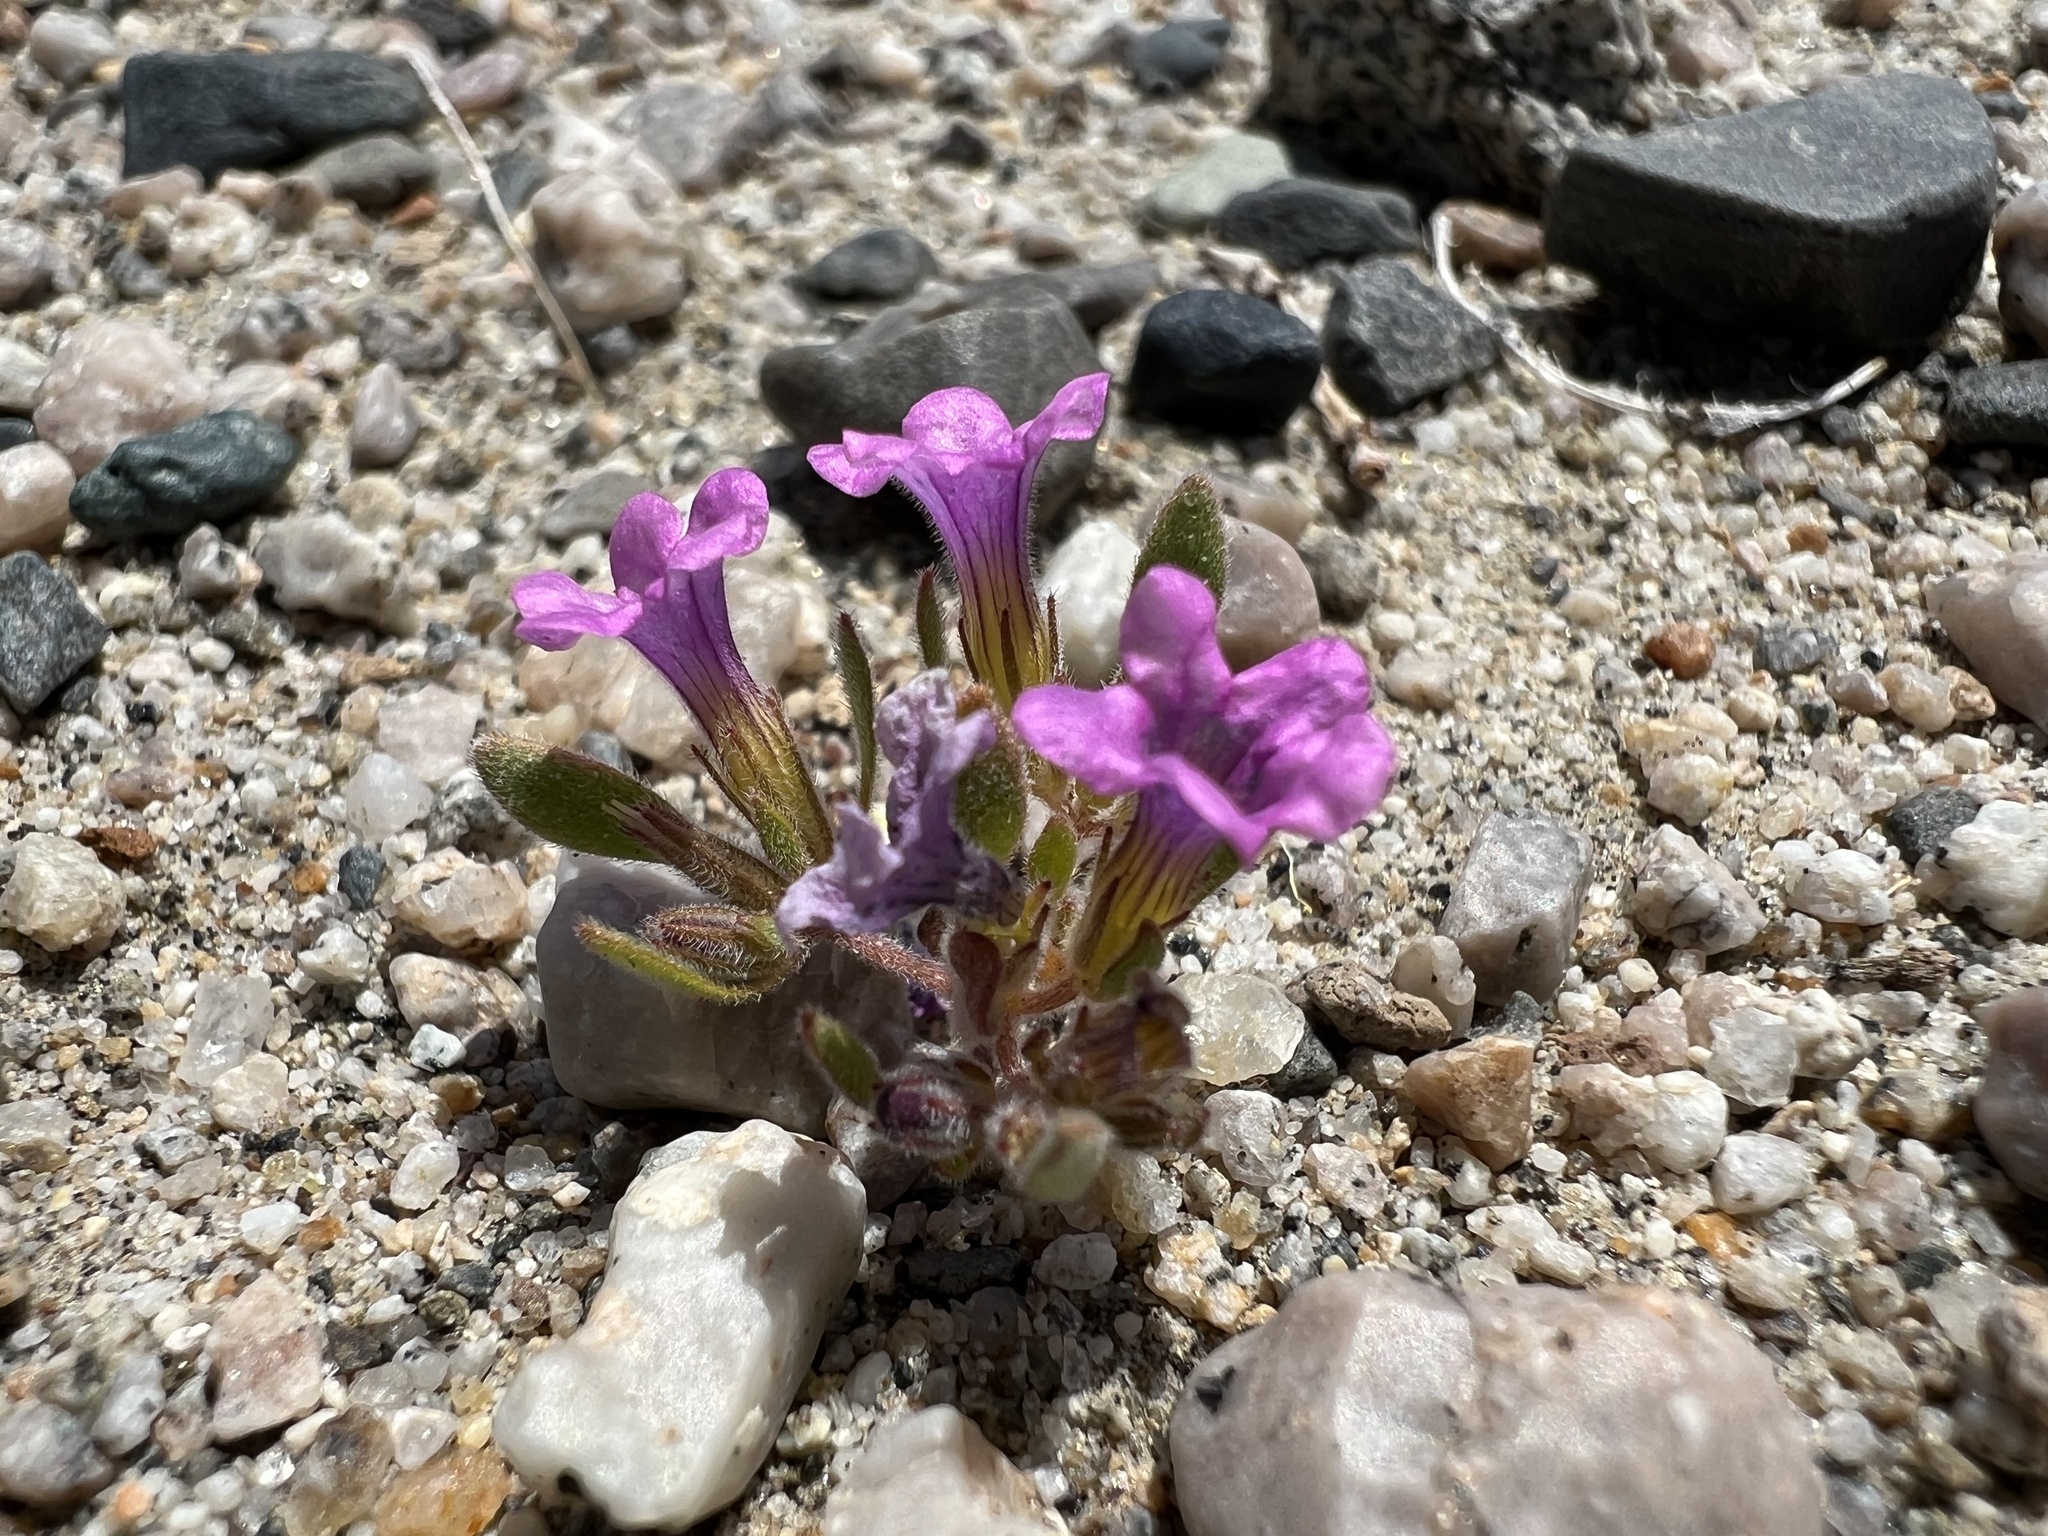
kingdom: Plantae
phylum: Tracheophyta
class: Magnoliopsida
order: Boraginales
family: Namaceae
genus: Nama
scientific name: Nama demissa
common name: Leafy nama
